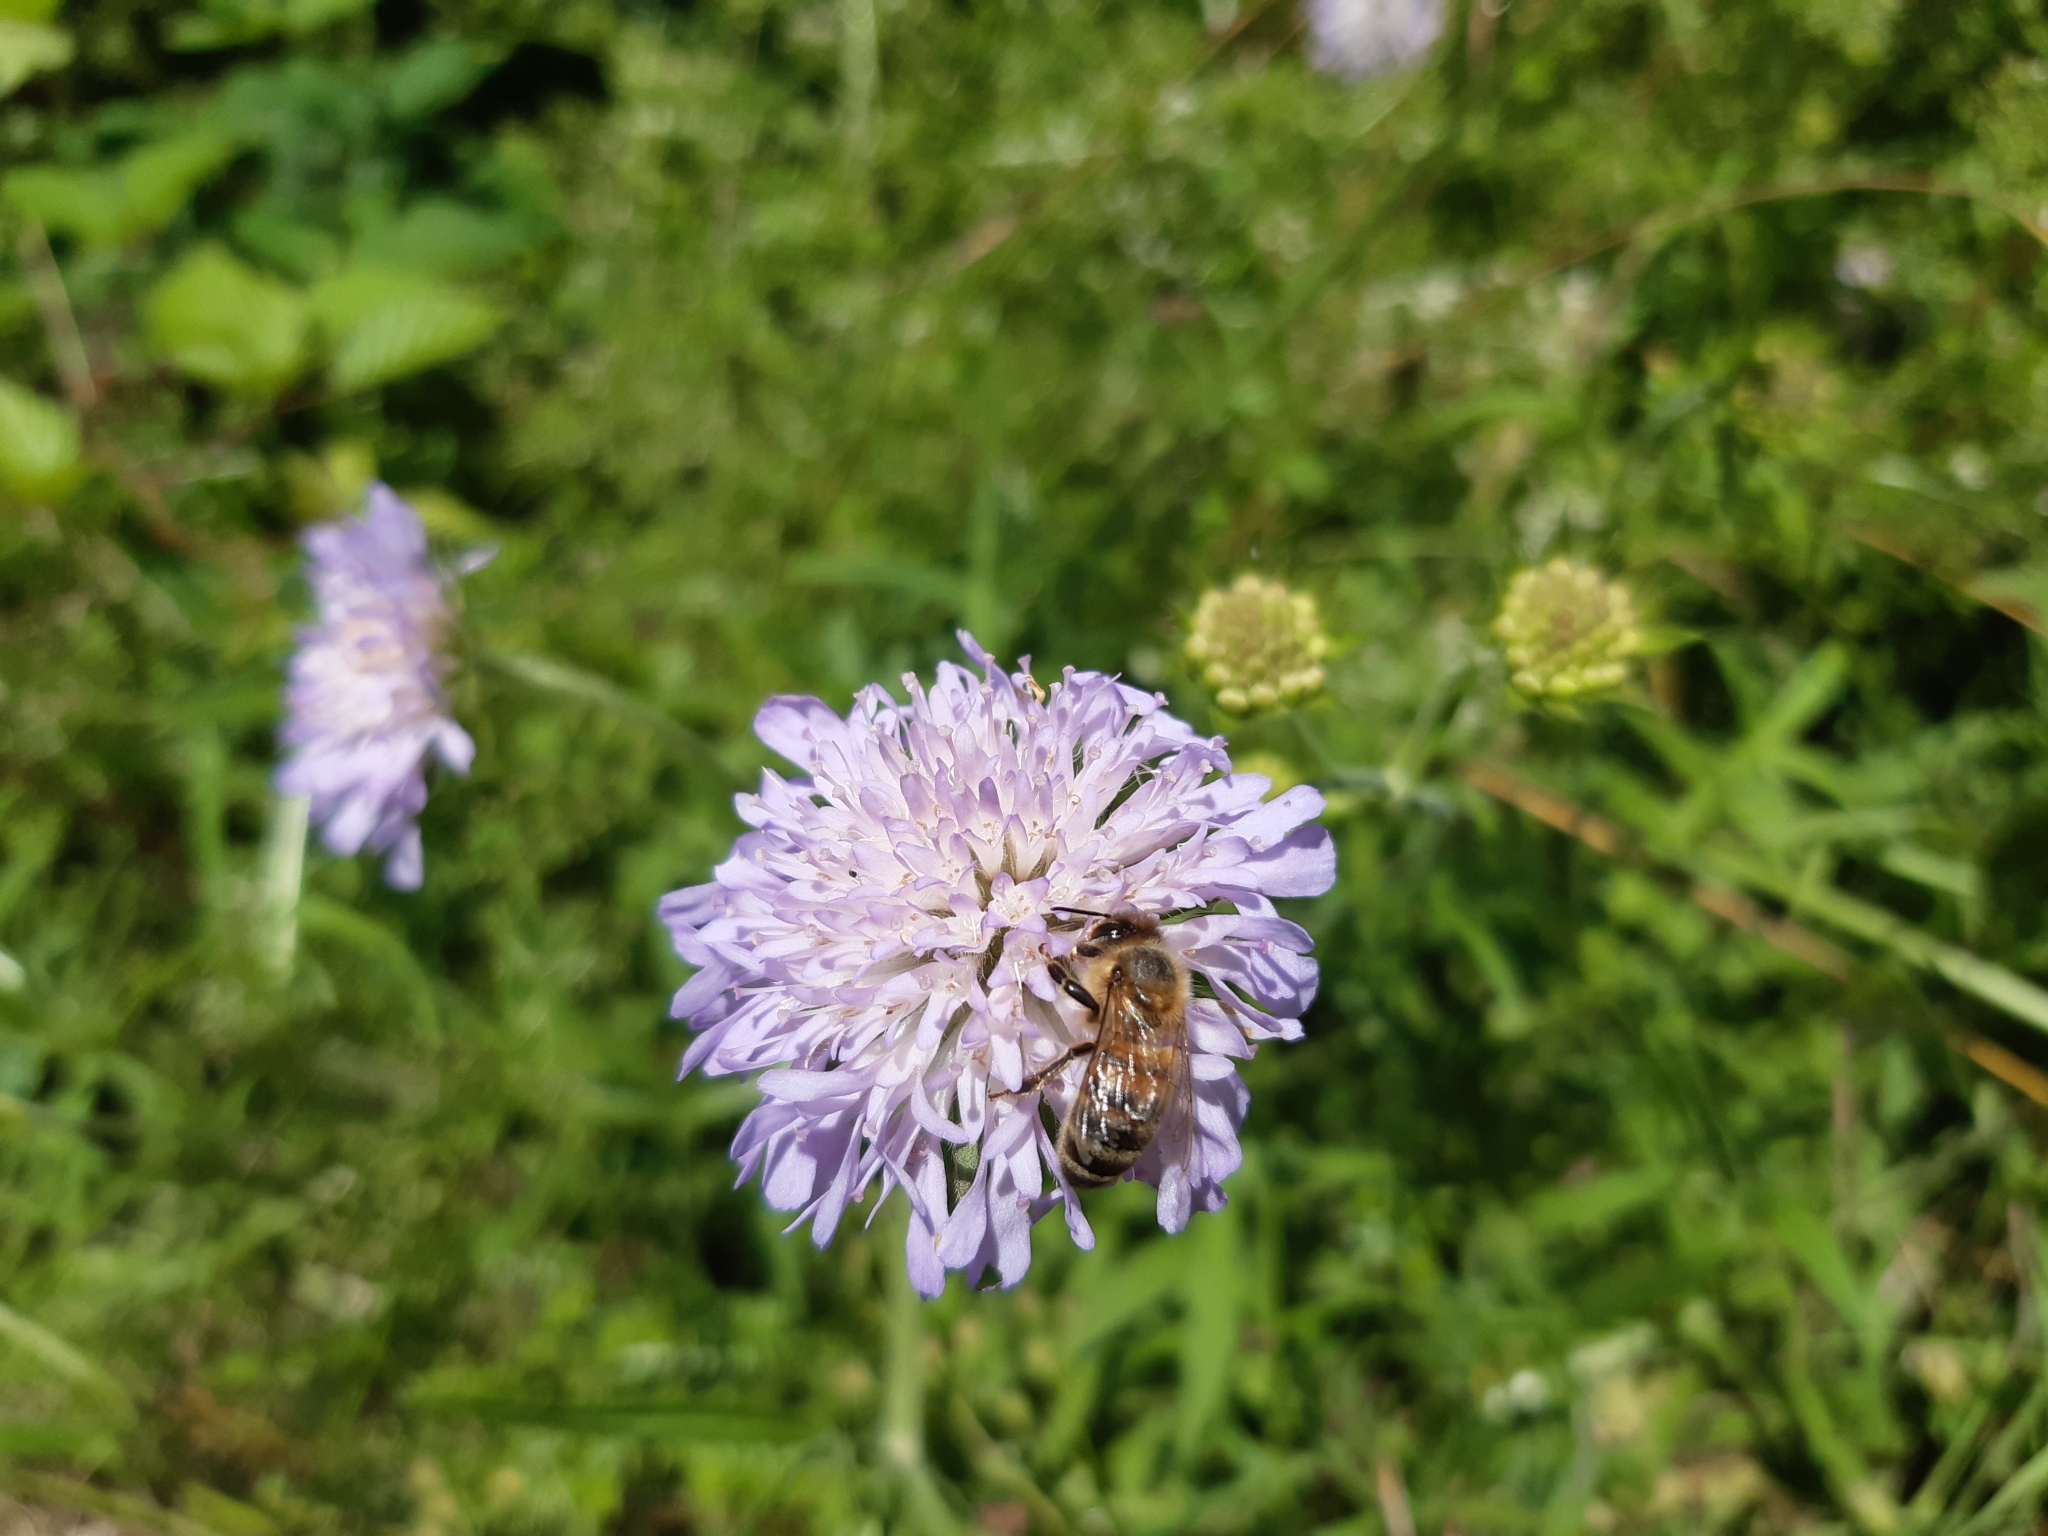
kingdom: Plantae
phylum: Tracheophyta
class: Magnoliopsida
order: Dipsacales
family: Caprifoliaceae
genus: Knautia
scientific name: Knautia arvensis
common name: Field scabiosa
